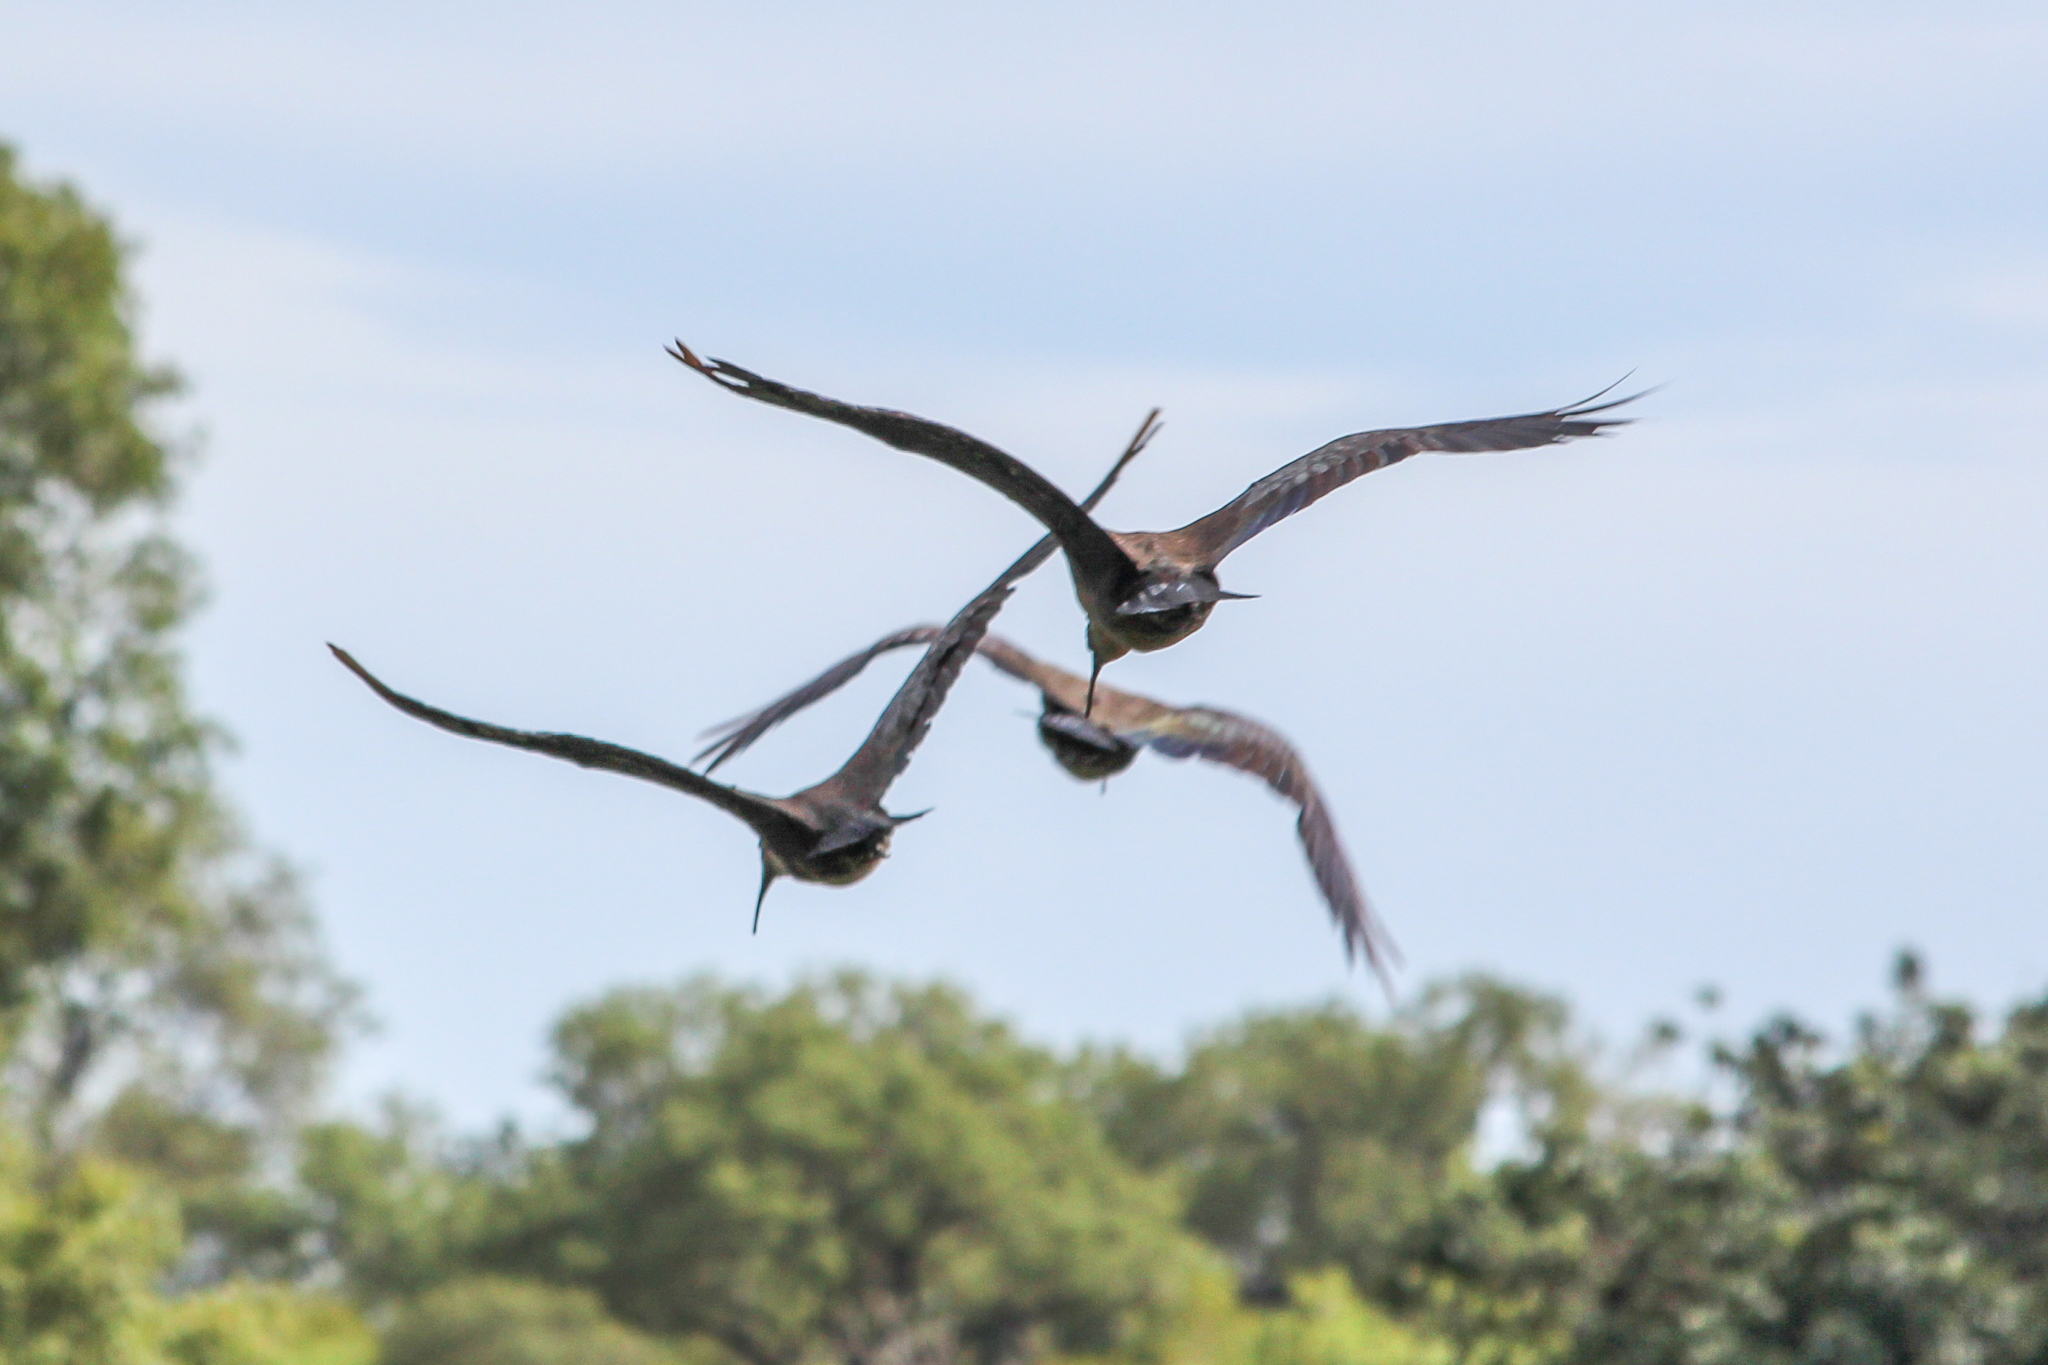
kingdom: Animalia
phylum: Chordata
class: Aves
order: Pelecaniformes
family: Threskiornithidae
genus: Bostrychia
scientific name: Bostrychia hagedash
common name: Hadada ibis
